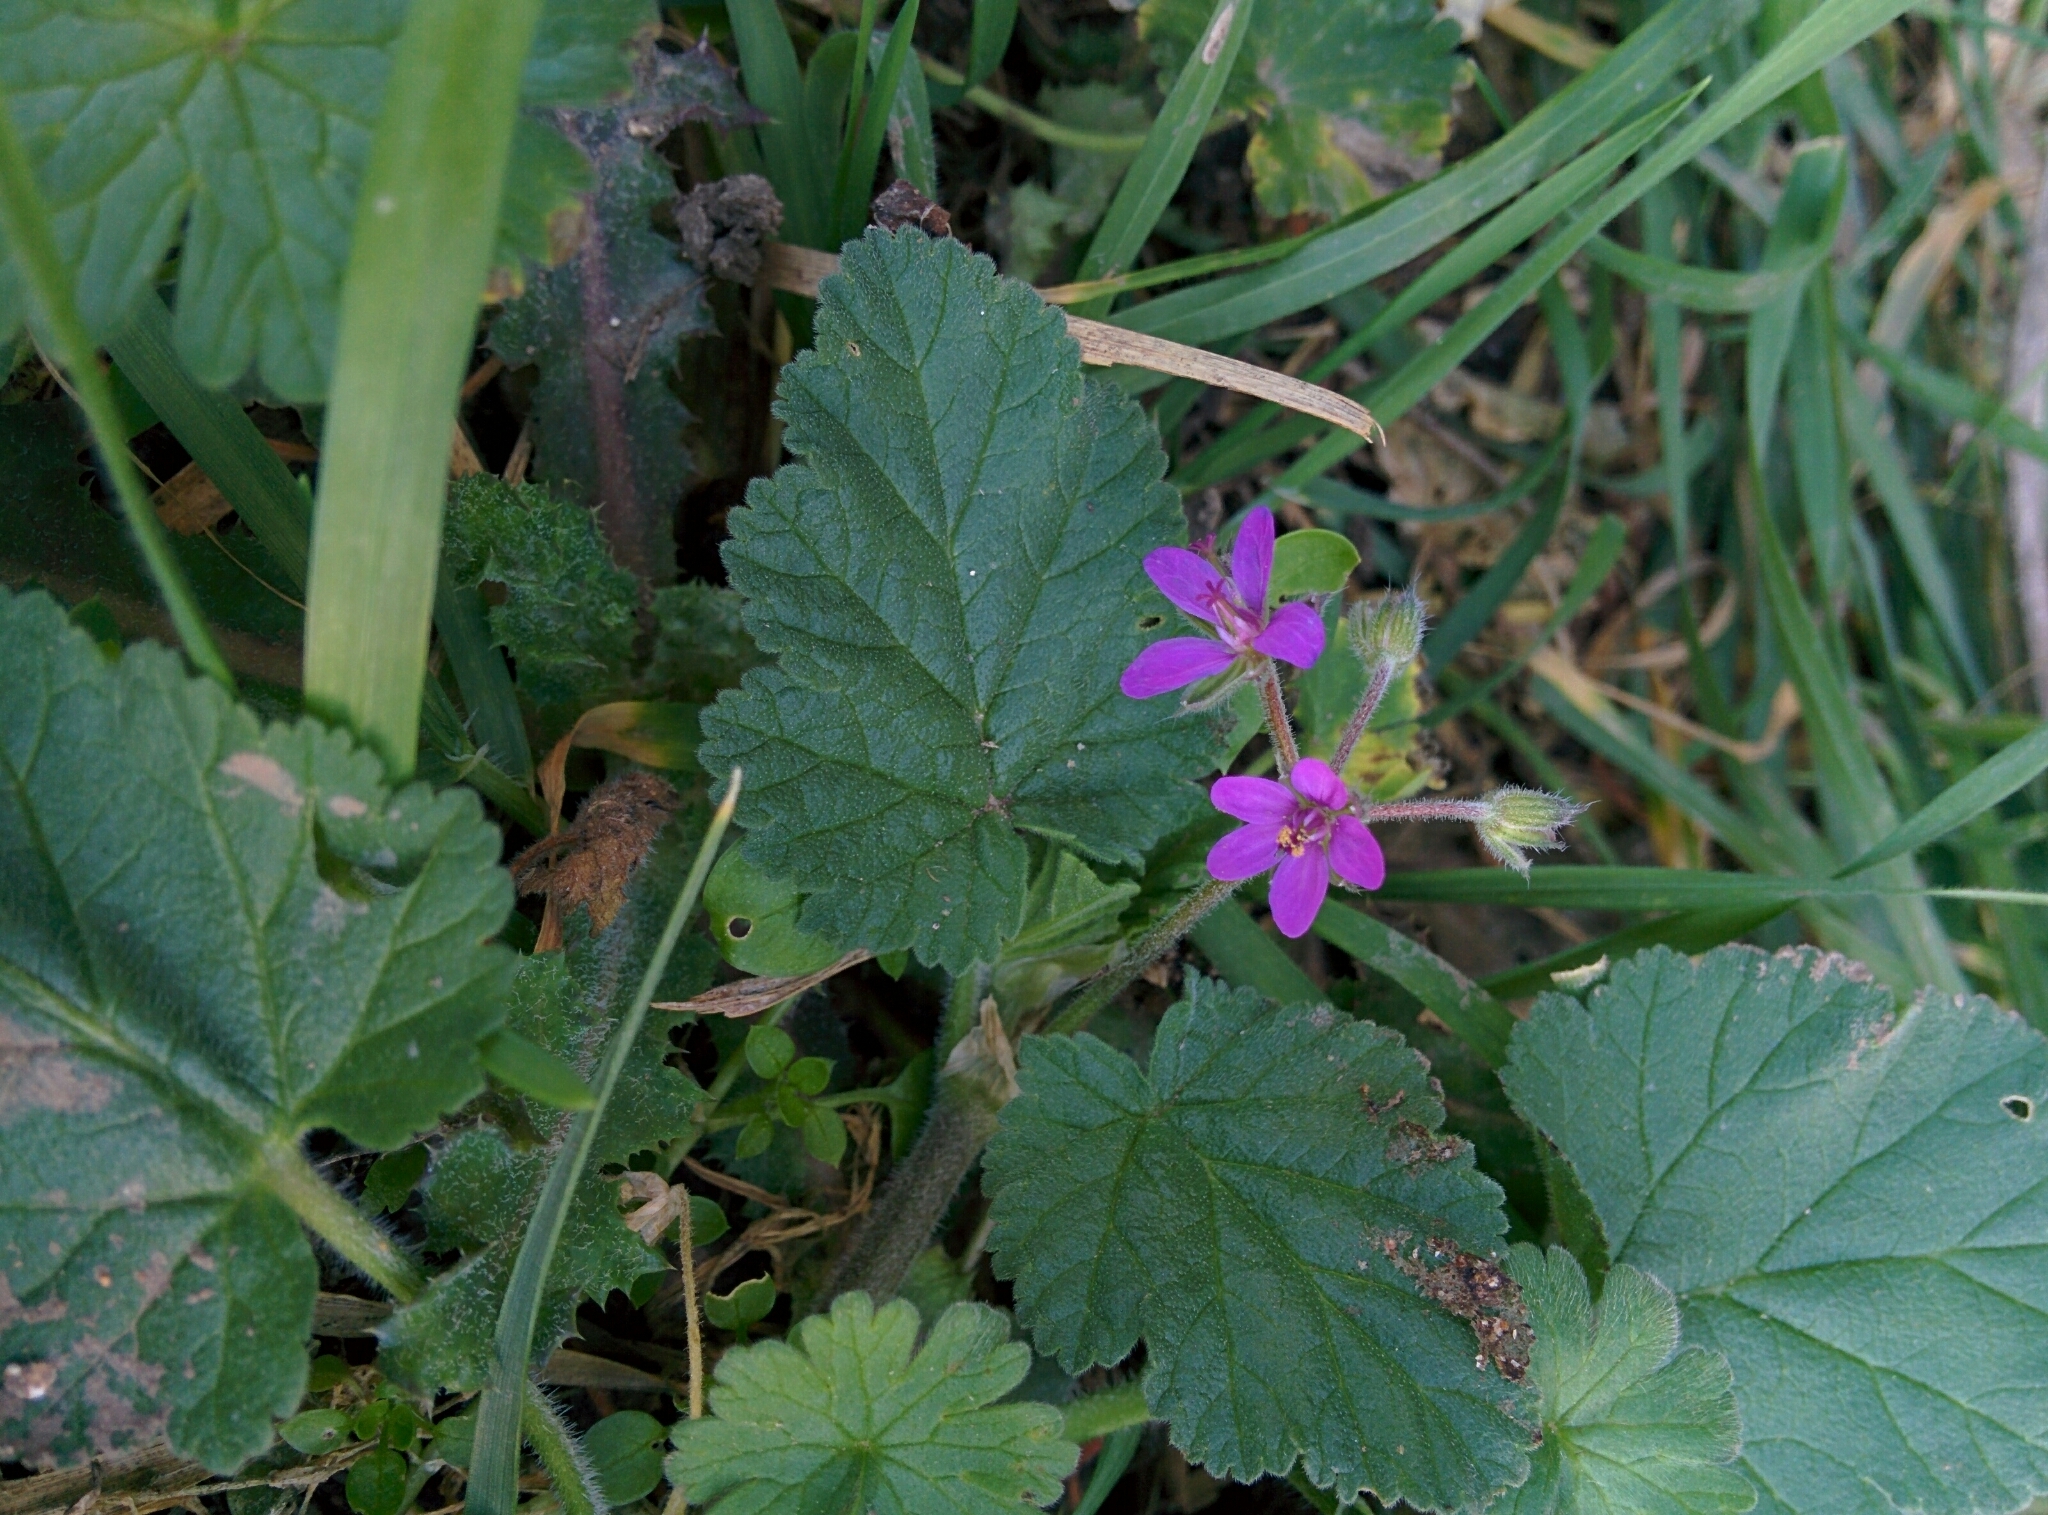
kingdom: Plantae
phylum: Tracheophyta
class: Magnoliopsida
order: Geraniales
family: Geraniaceae
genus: Erodium
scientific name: Erodium malacoides
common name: Soft stork's-bill
